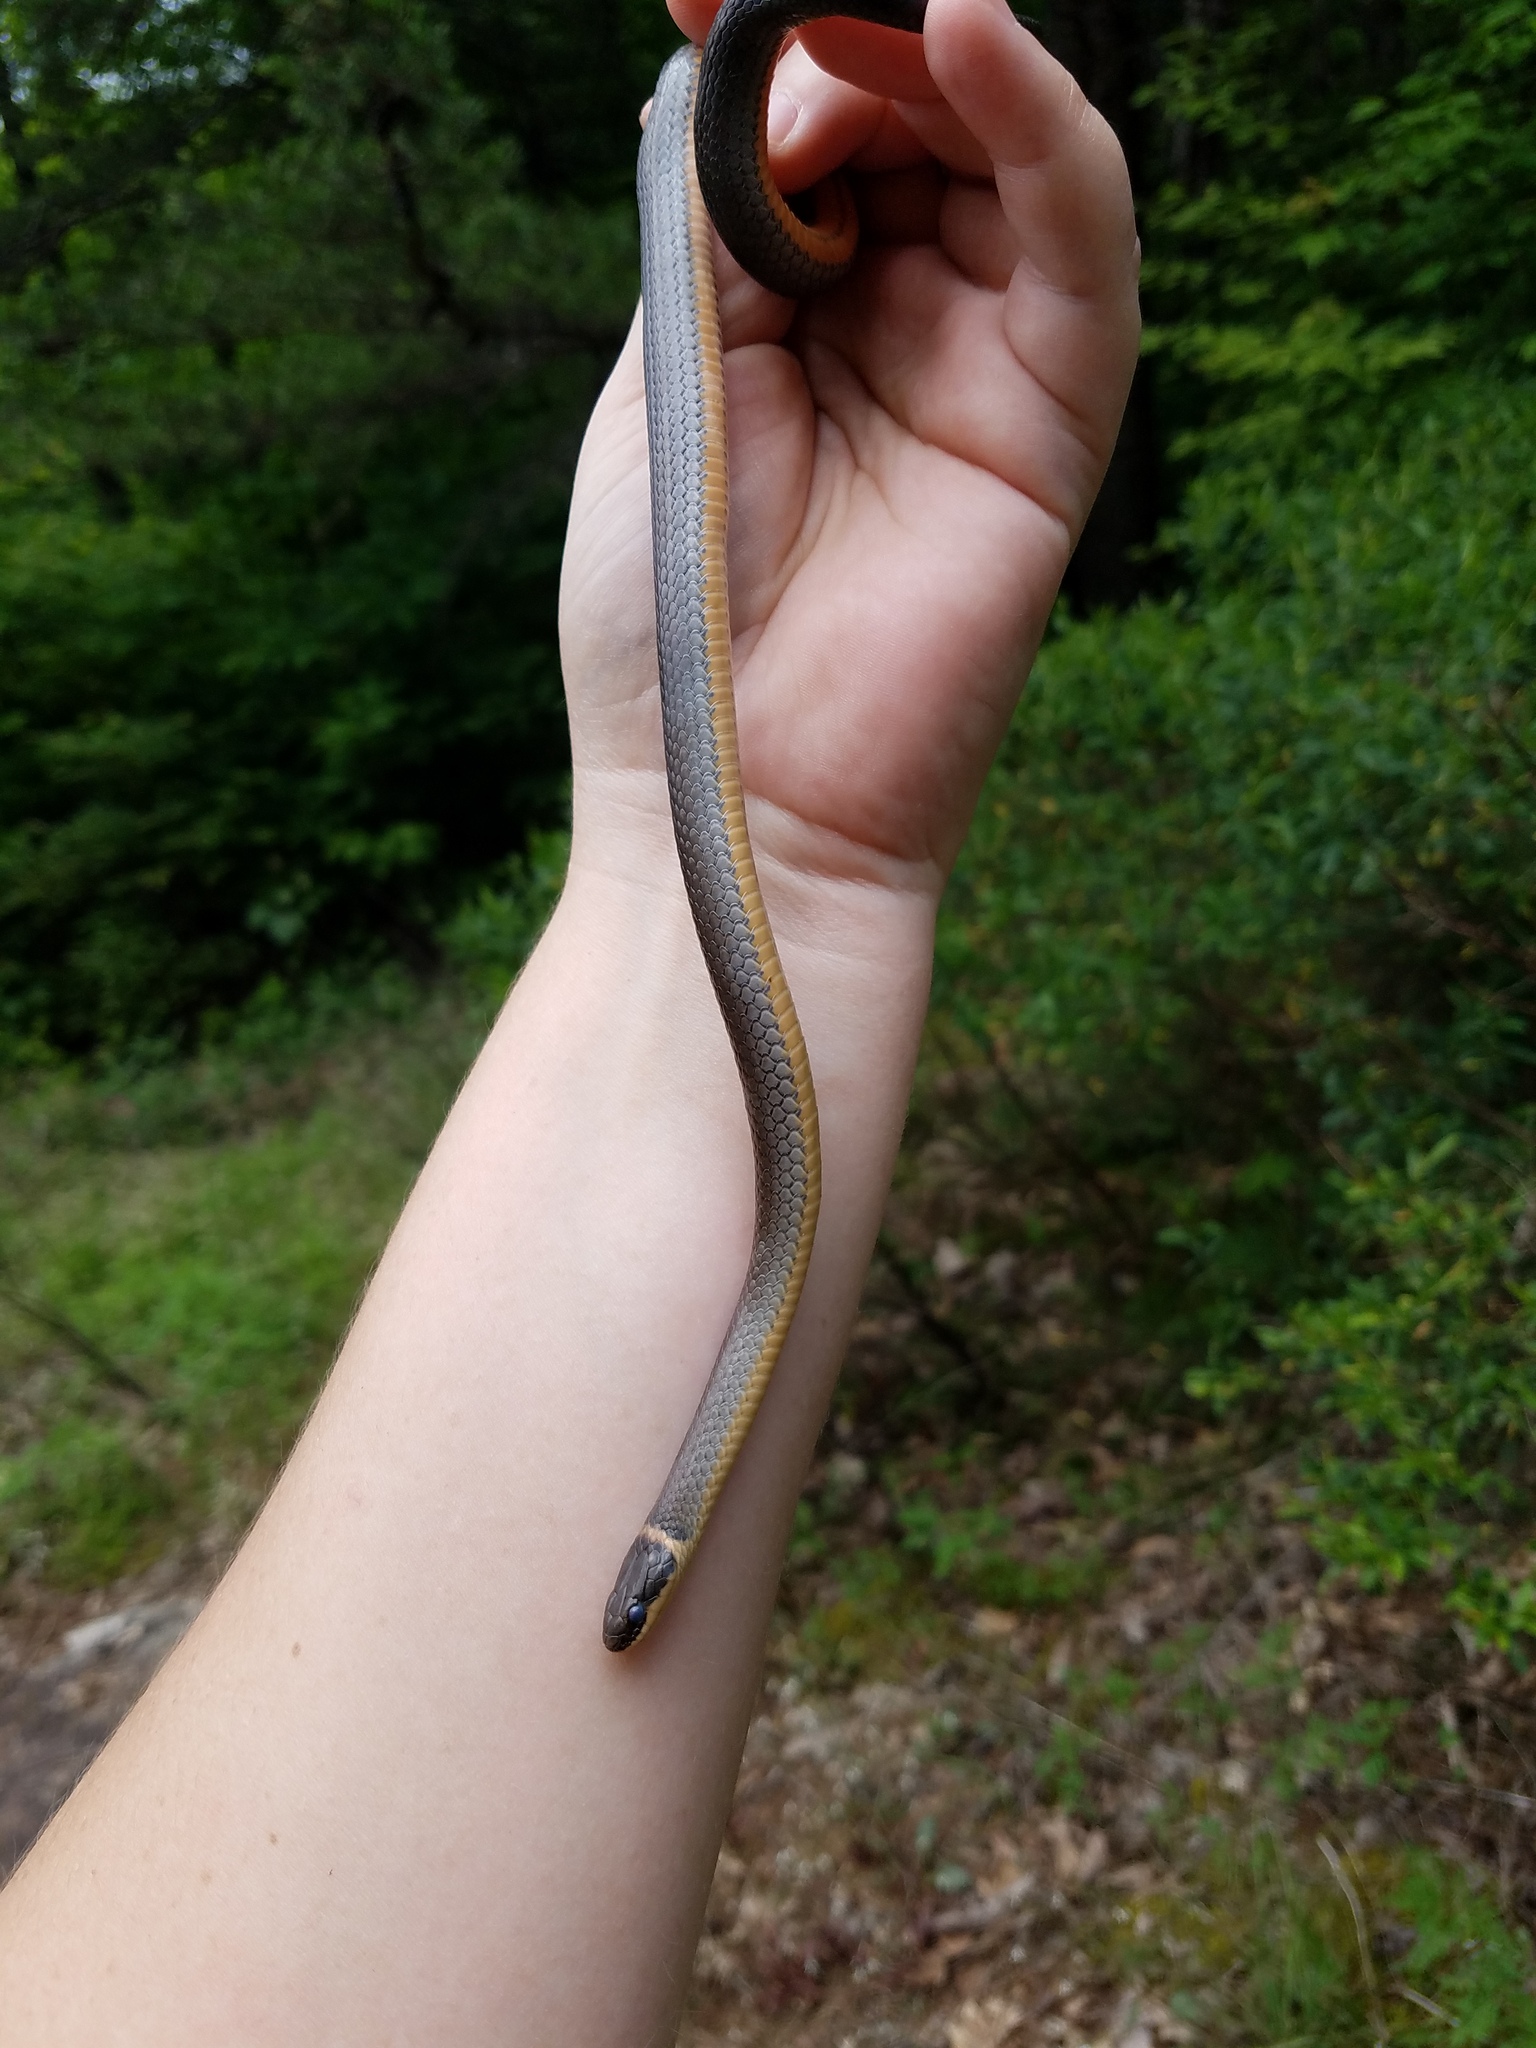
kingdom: Animalia
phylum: Chordata
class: Squamata
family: Colubridae
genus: Diadophis
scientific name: Diadophis punctatus
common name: Ringneck snake
